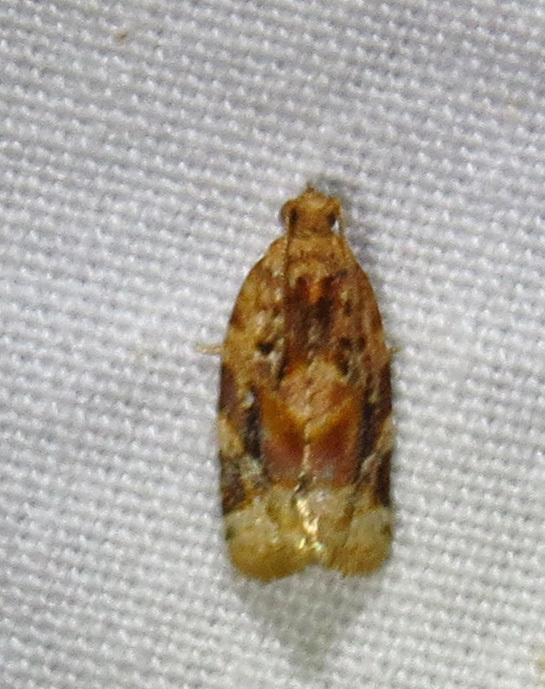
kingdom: Animalia
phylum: Arthropoda
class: Insecta
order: Lepidoptera
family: Tortricidae
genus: Argyrotaenia
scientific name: Argyrotaenia velutinana
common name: Red-banded leafroller moth
